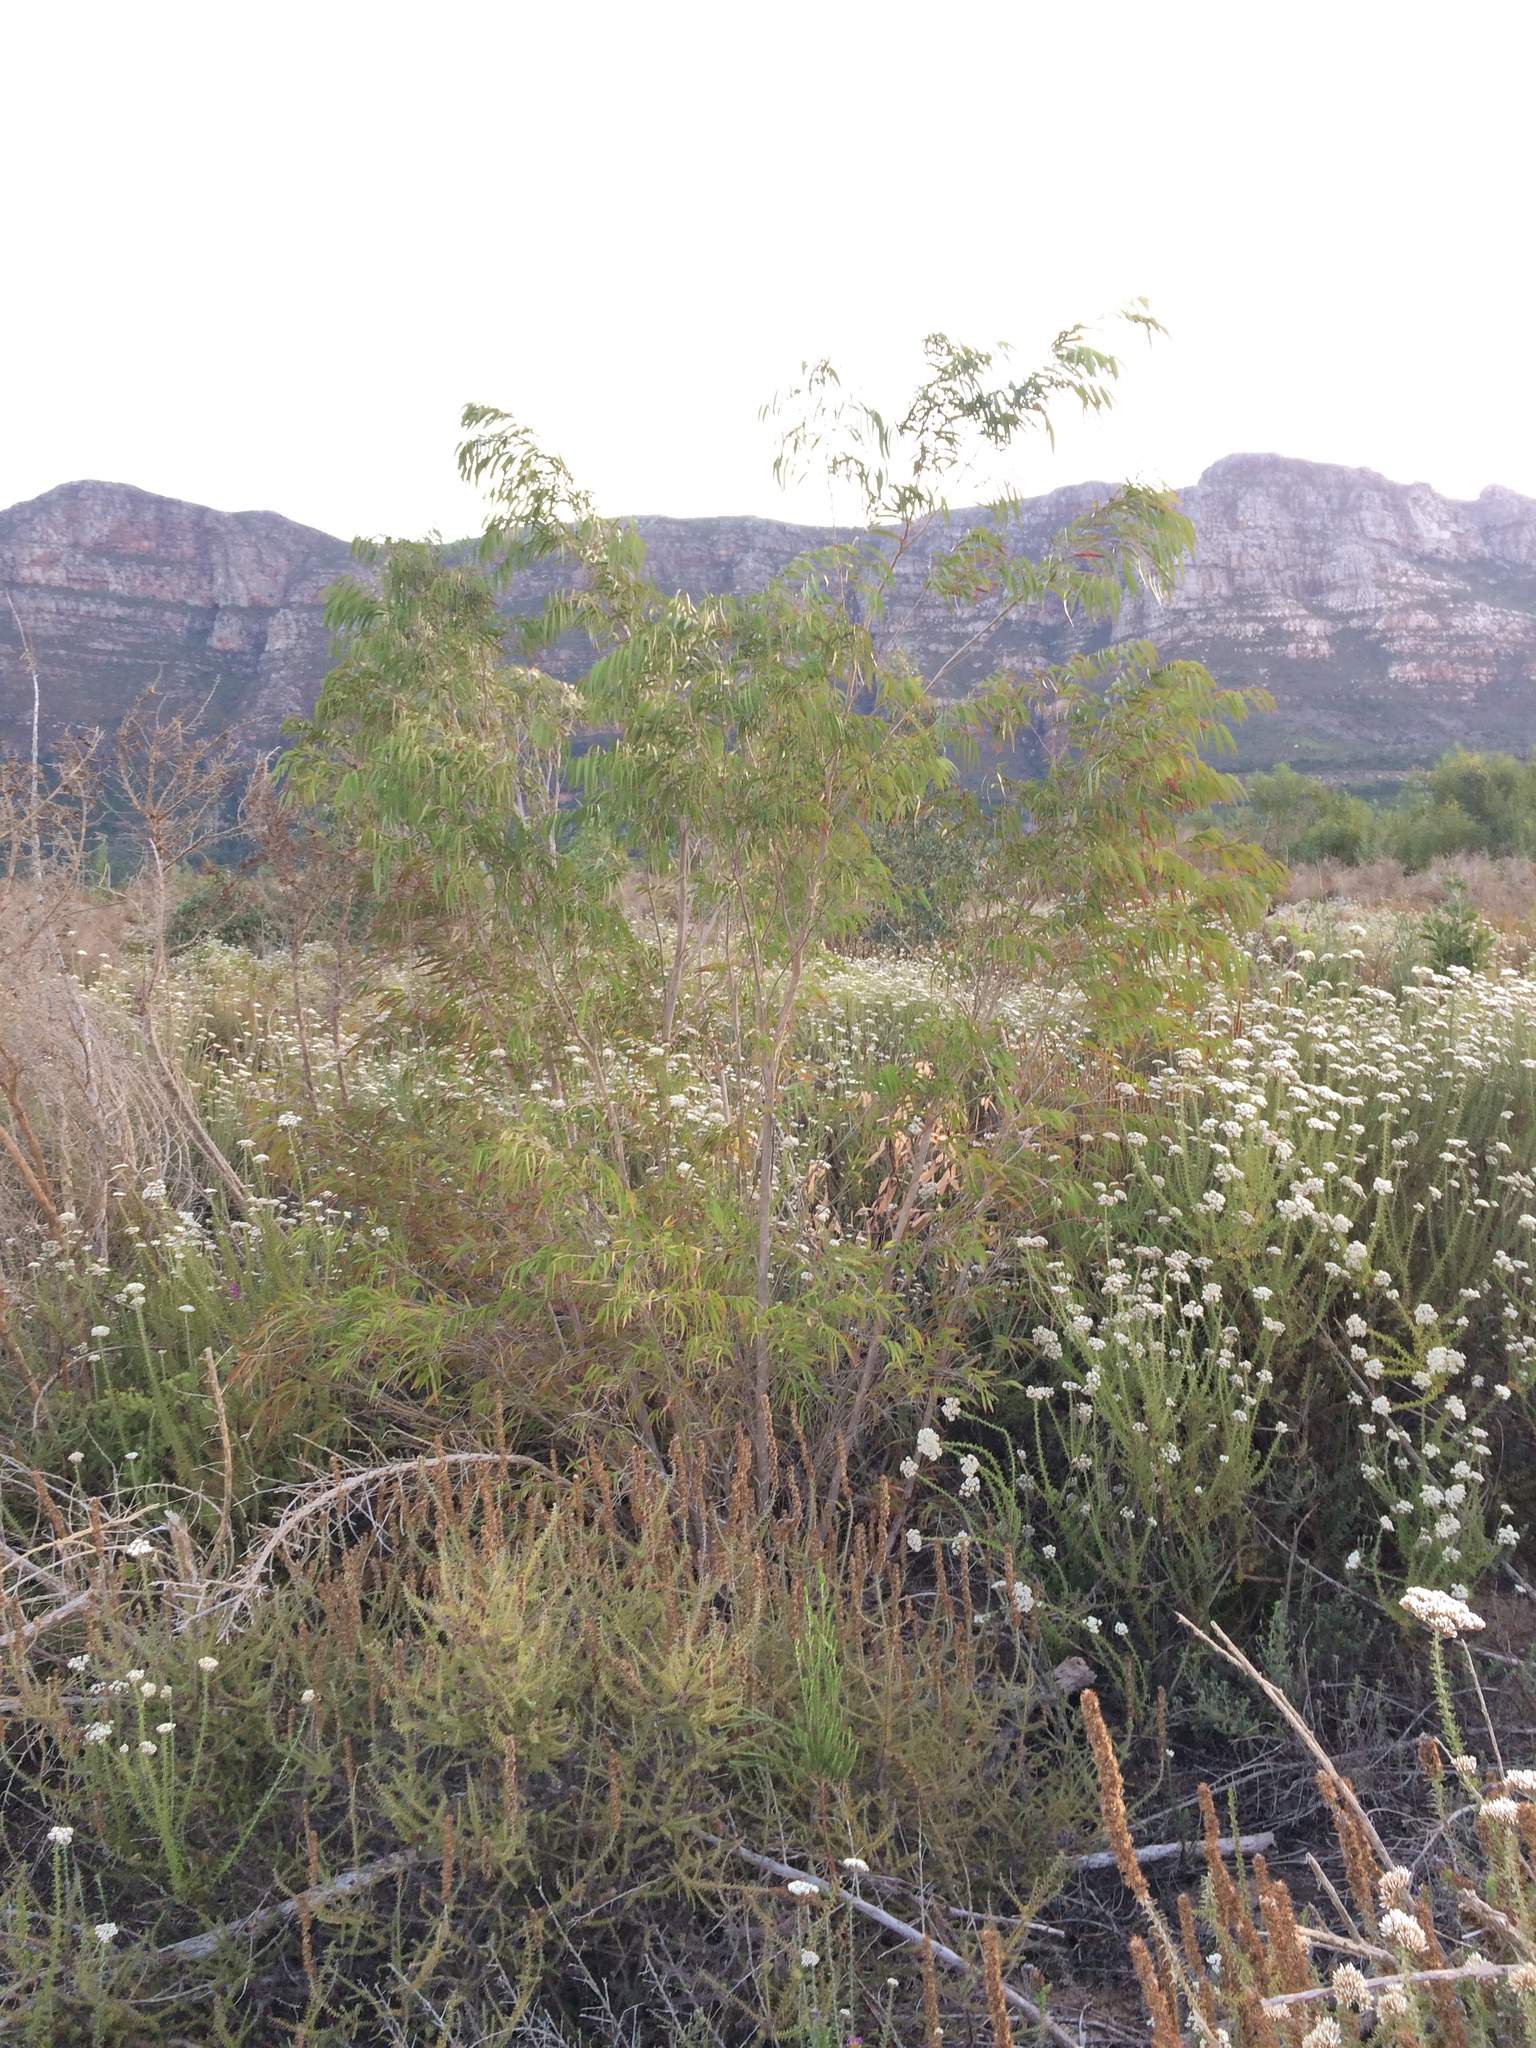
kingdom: Plantae
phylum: Tracheophyta
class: Magnoliopsida
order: Myrtales
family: Myrtaceae
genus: Agonis
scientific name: Agonis flexuosa
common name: Willow myrtle
